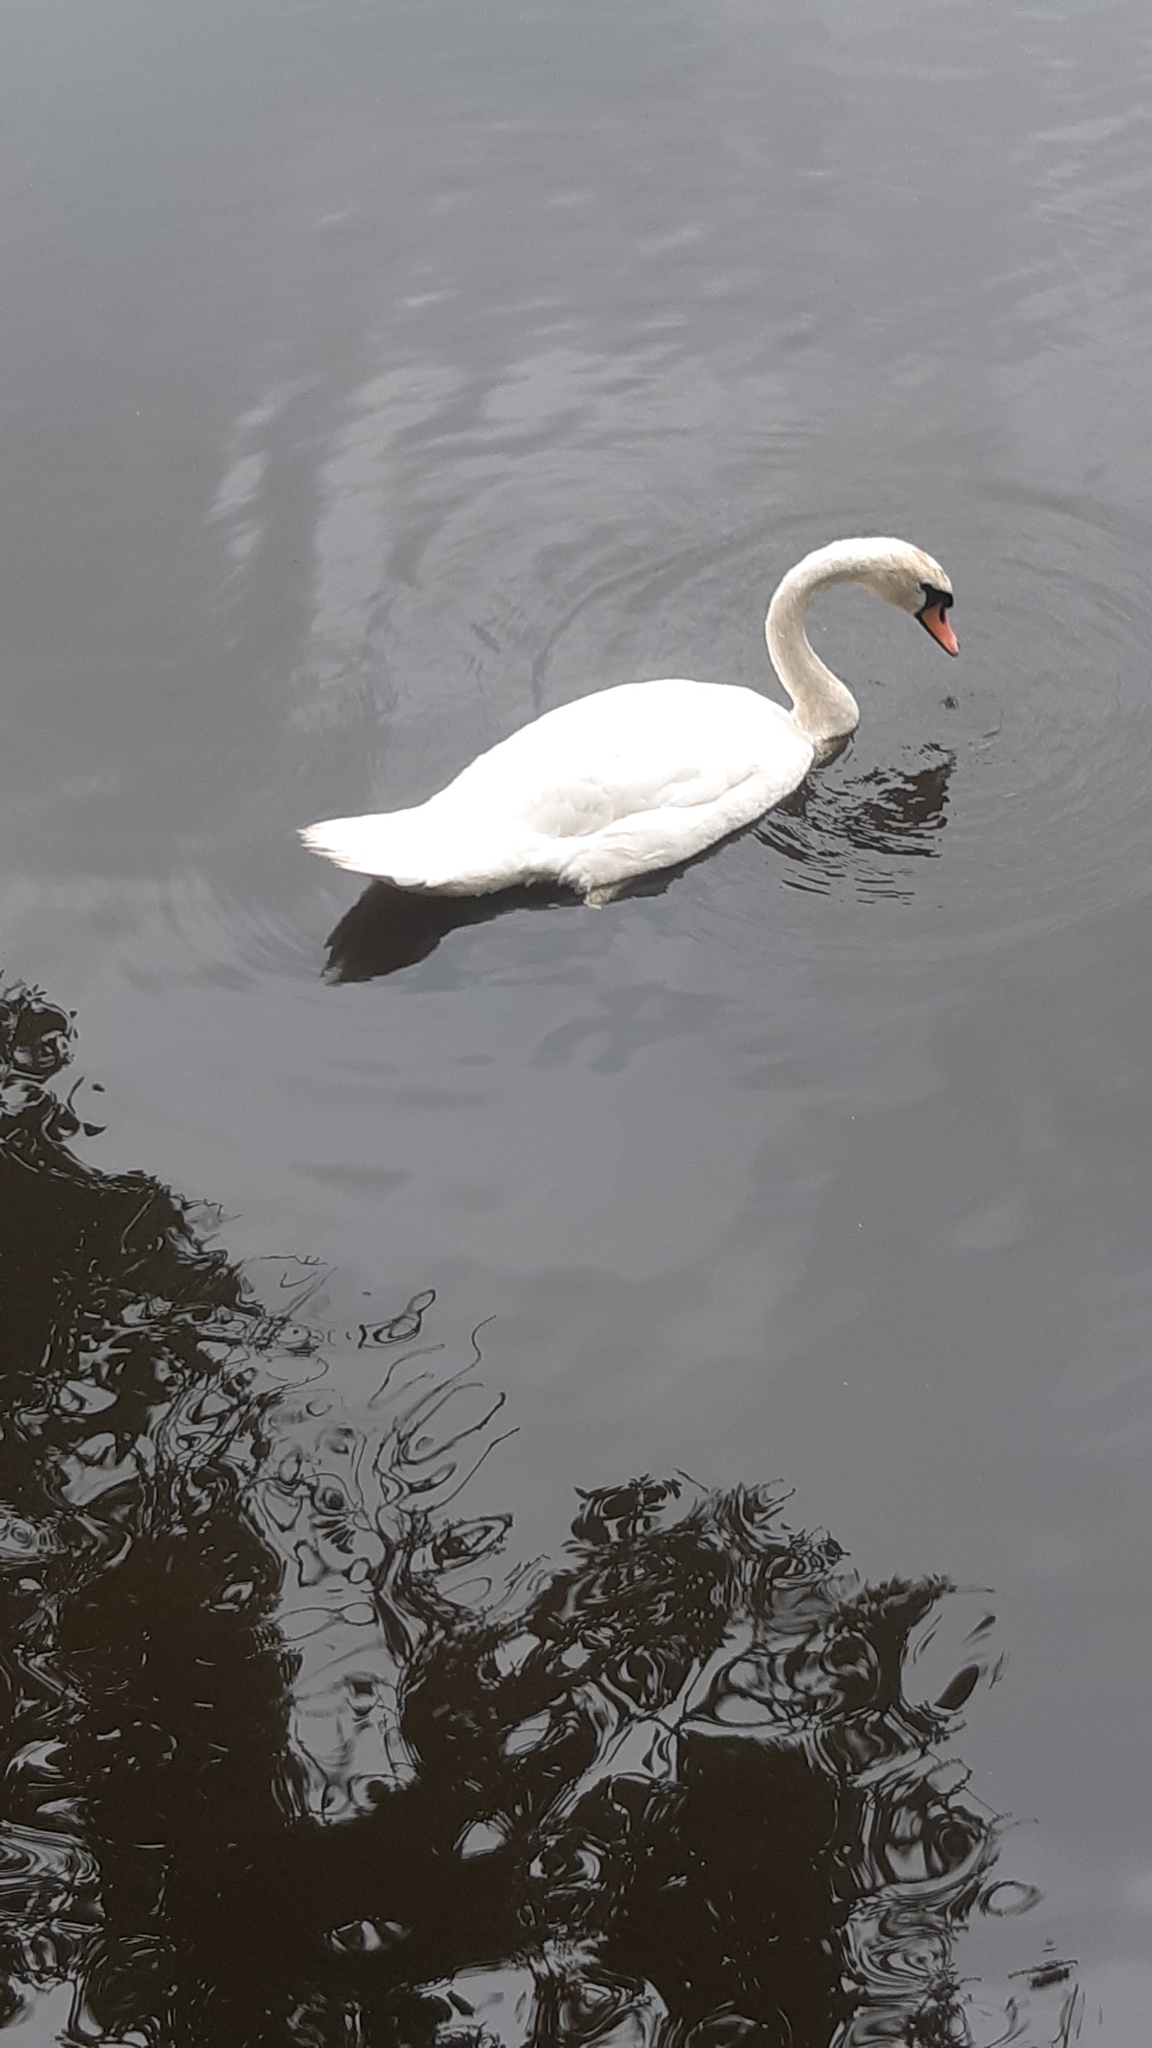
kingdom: Animalia
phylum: Chordata
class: Aves
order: Anseriformes
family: Anatidae
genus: Cygnus
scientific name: Cygnus olor
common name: Mute swan
